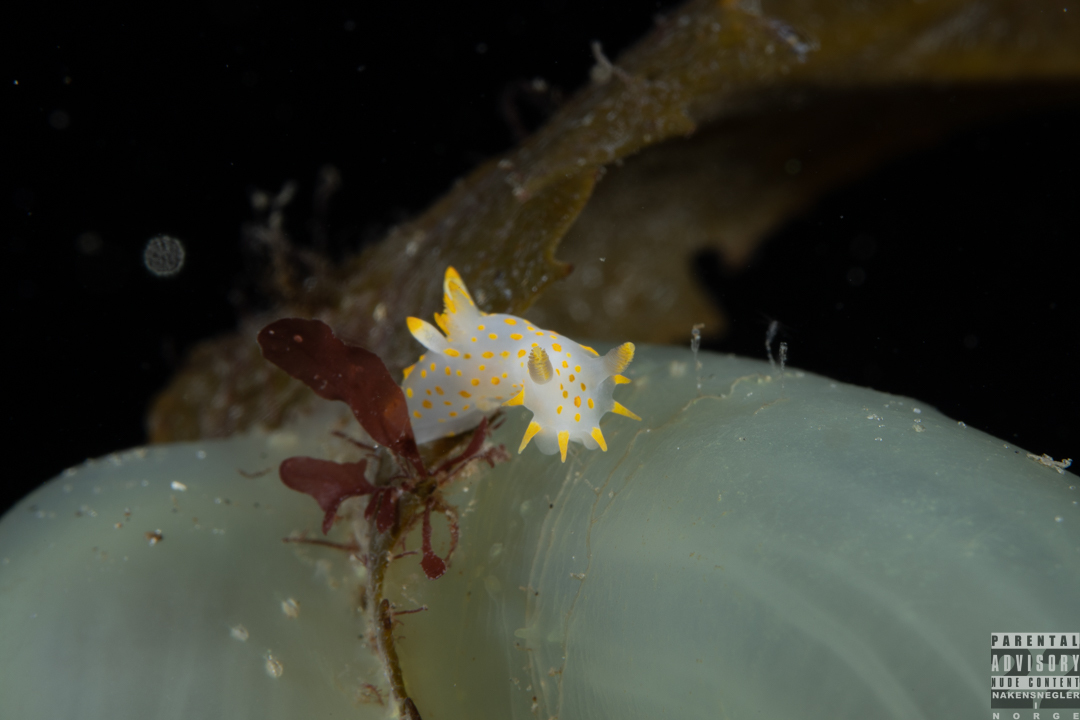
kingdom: Animalia
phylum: Mollusca
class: Gastropoda
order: Nudibranchia
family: Polyceridae
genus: Polycera
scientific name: Polycera quadrilineata
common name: Four-striped polycera
